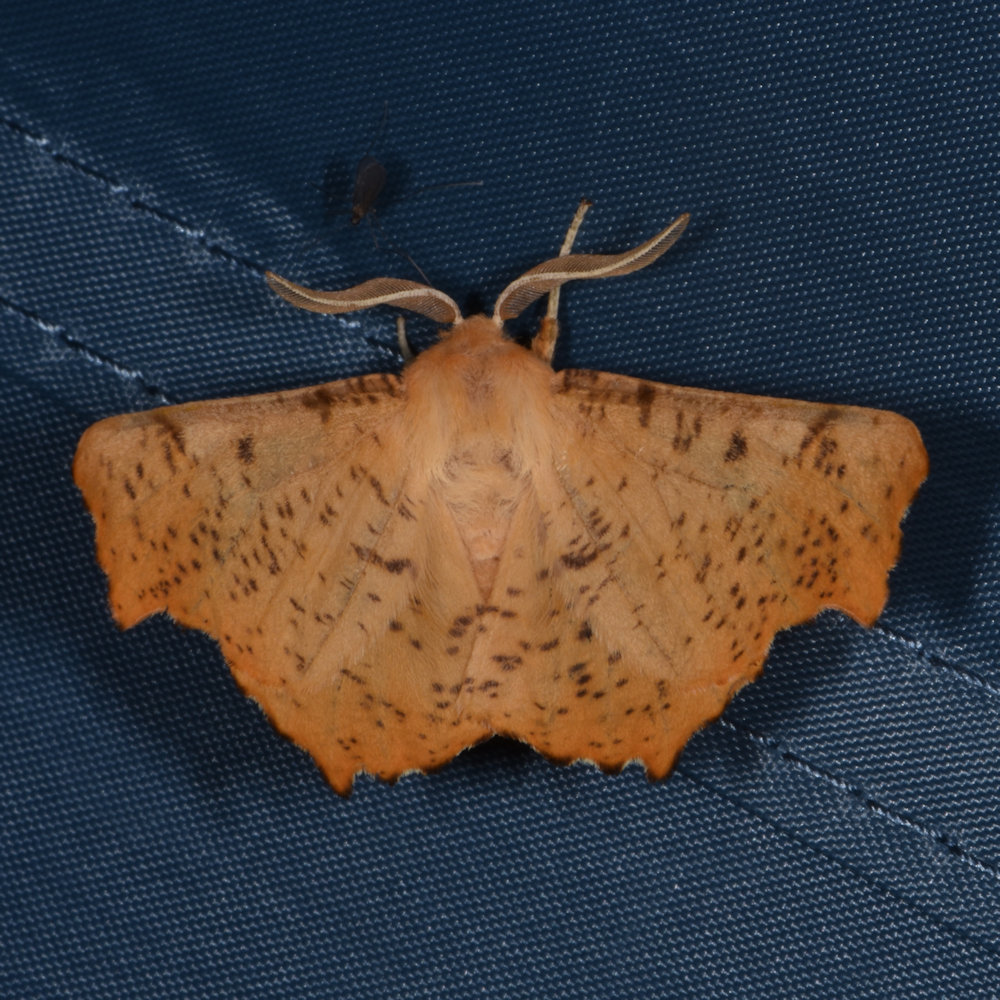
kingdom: Animalia
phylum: Arthropoda
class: Insecta
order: Lepidoptera
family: Geometridae
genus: Ennomos
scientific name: Ennomos magnaria
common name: Maple spanworm
